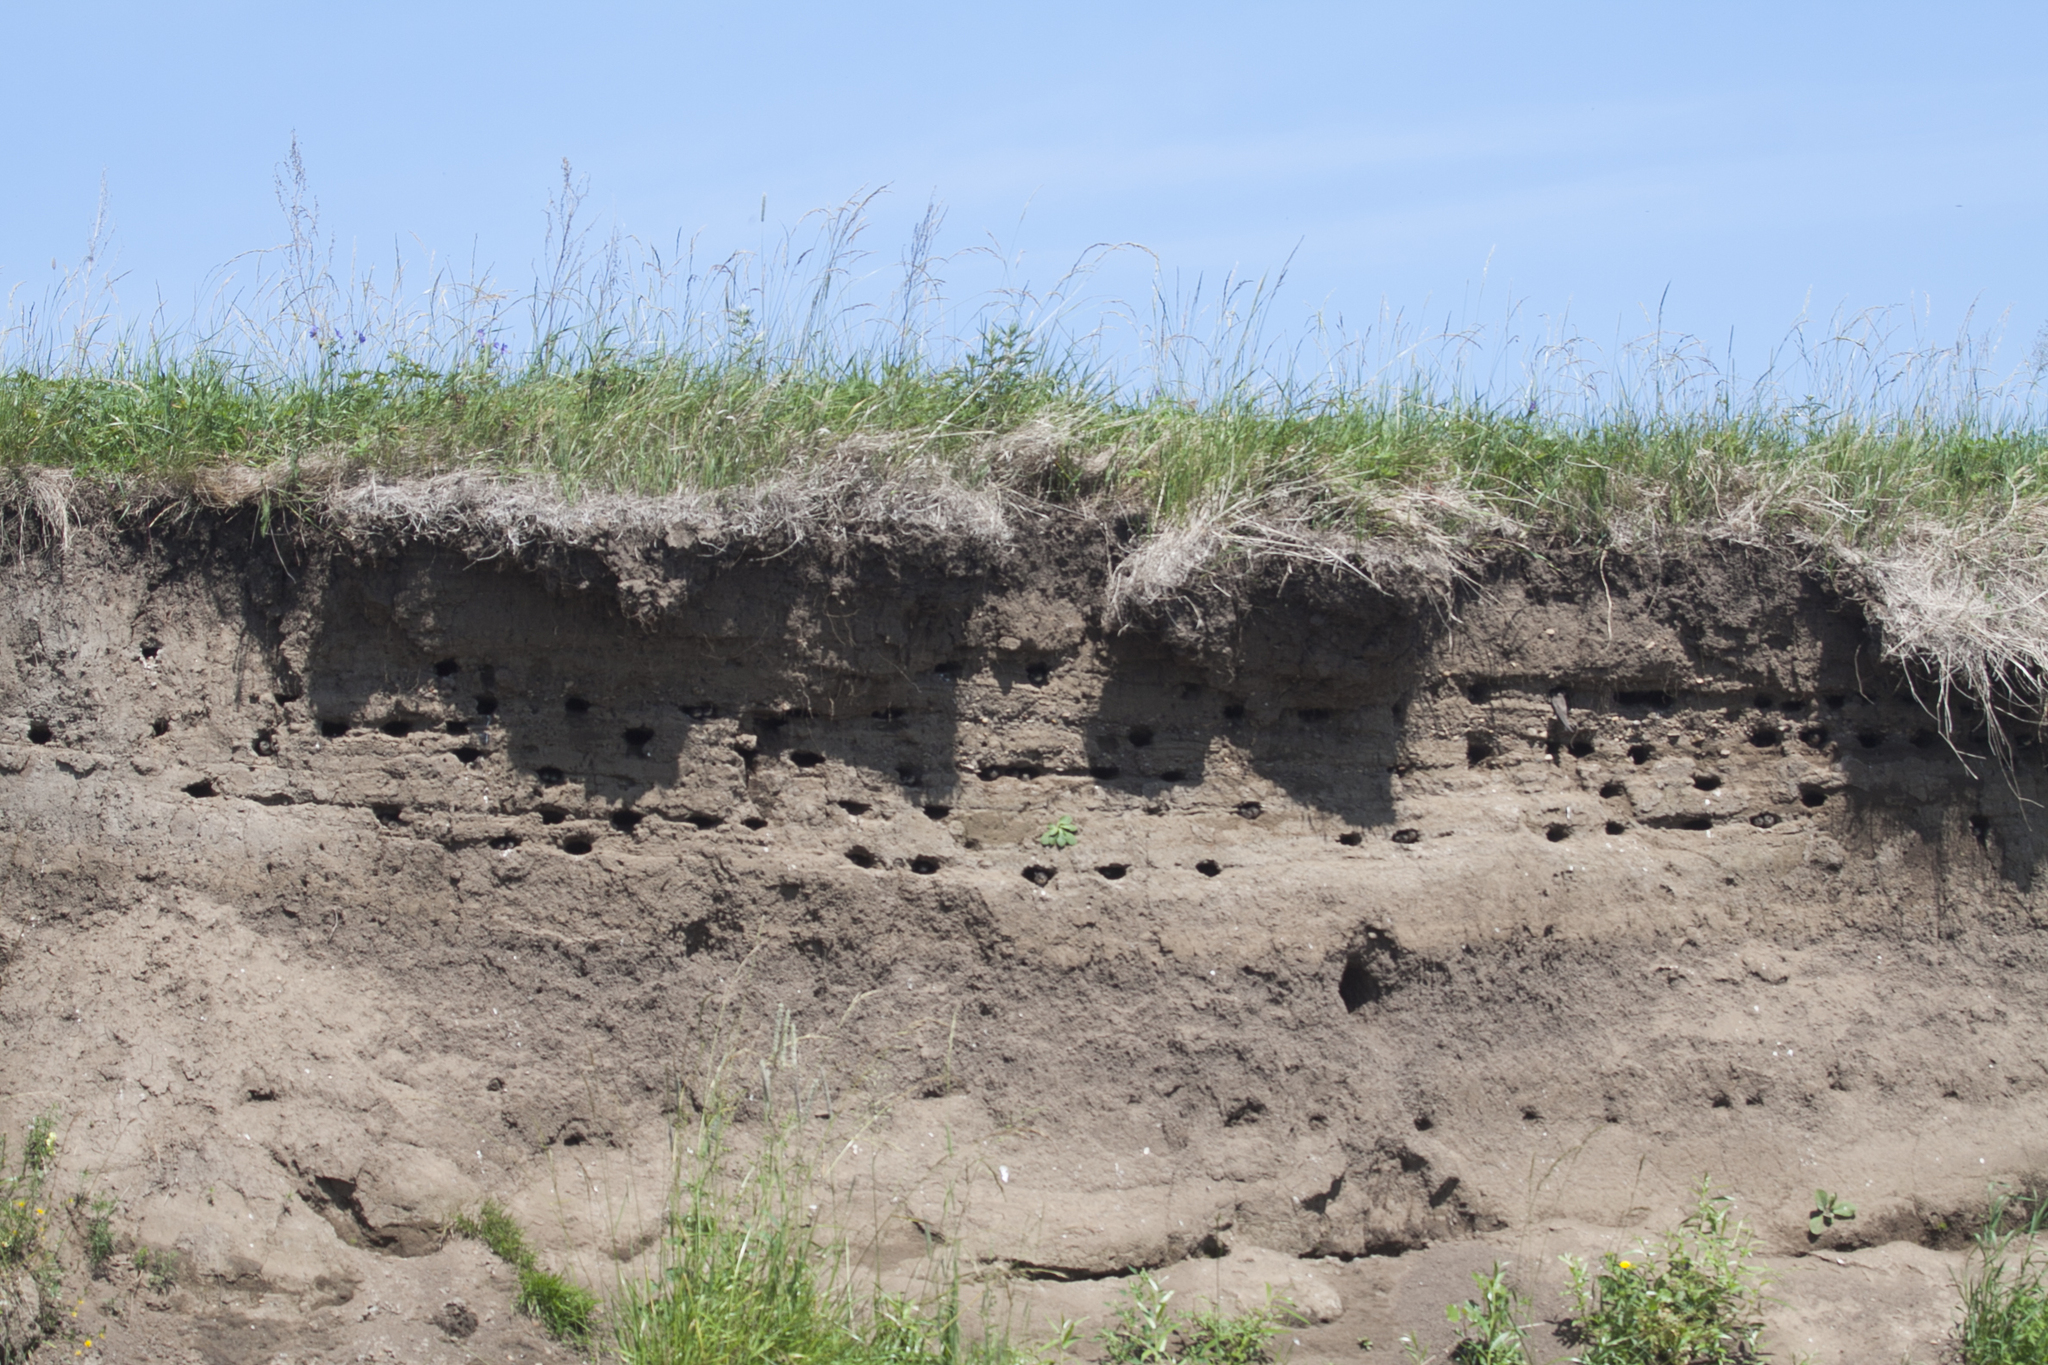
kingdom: Animalia
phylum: Chordata
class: Aves
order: Passeriformes
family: Hirundinidae
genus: Riparia
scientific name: Riparia riparia
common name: Sand martin
